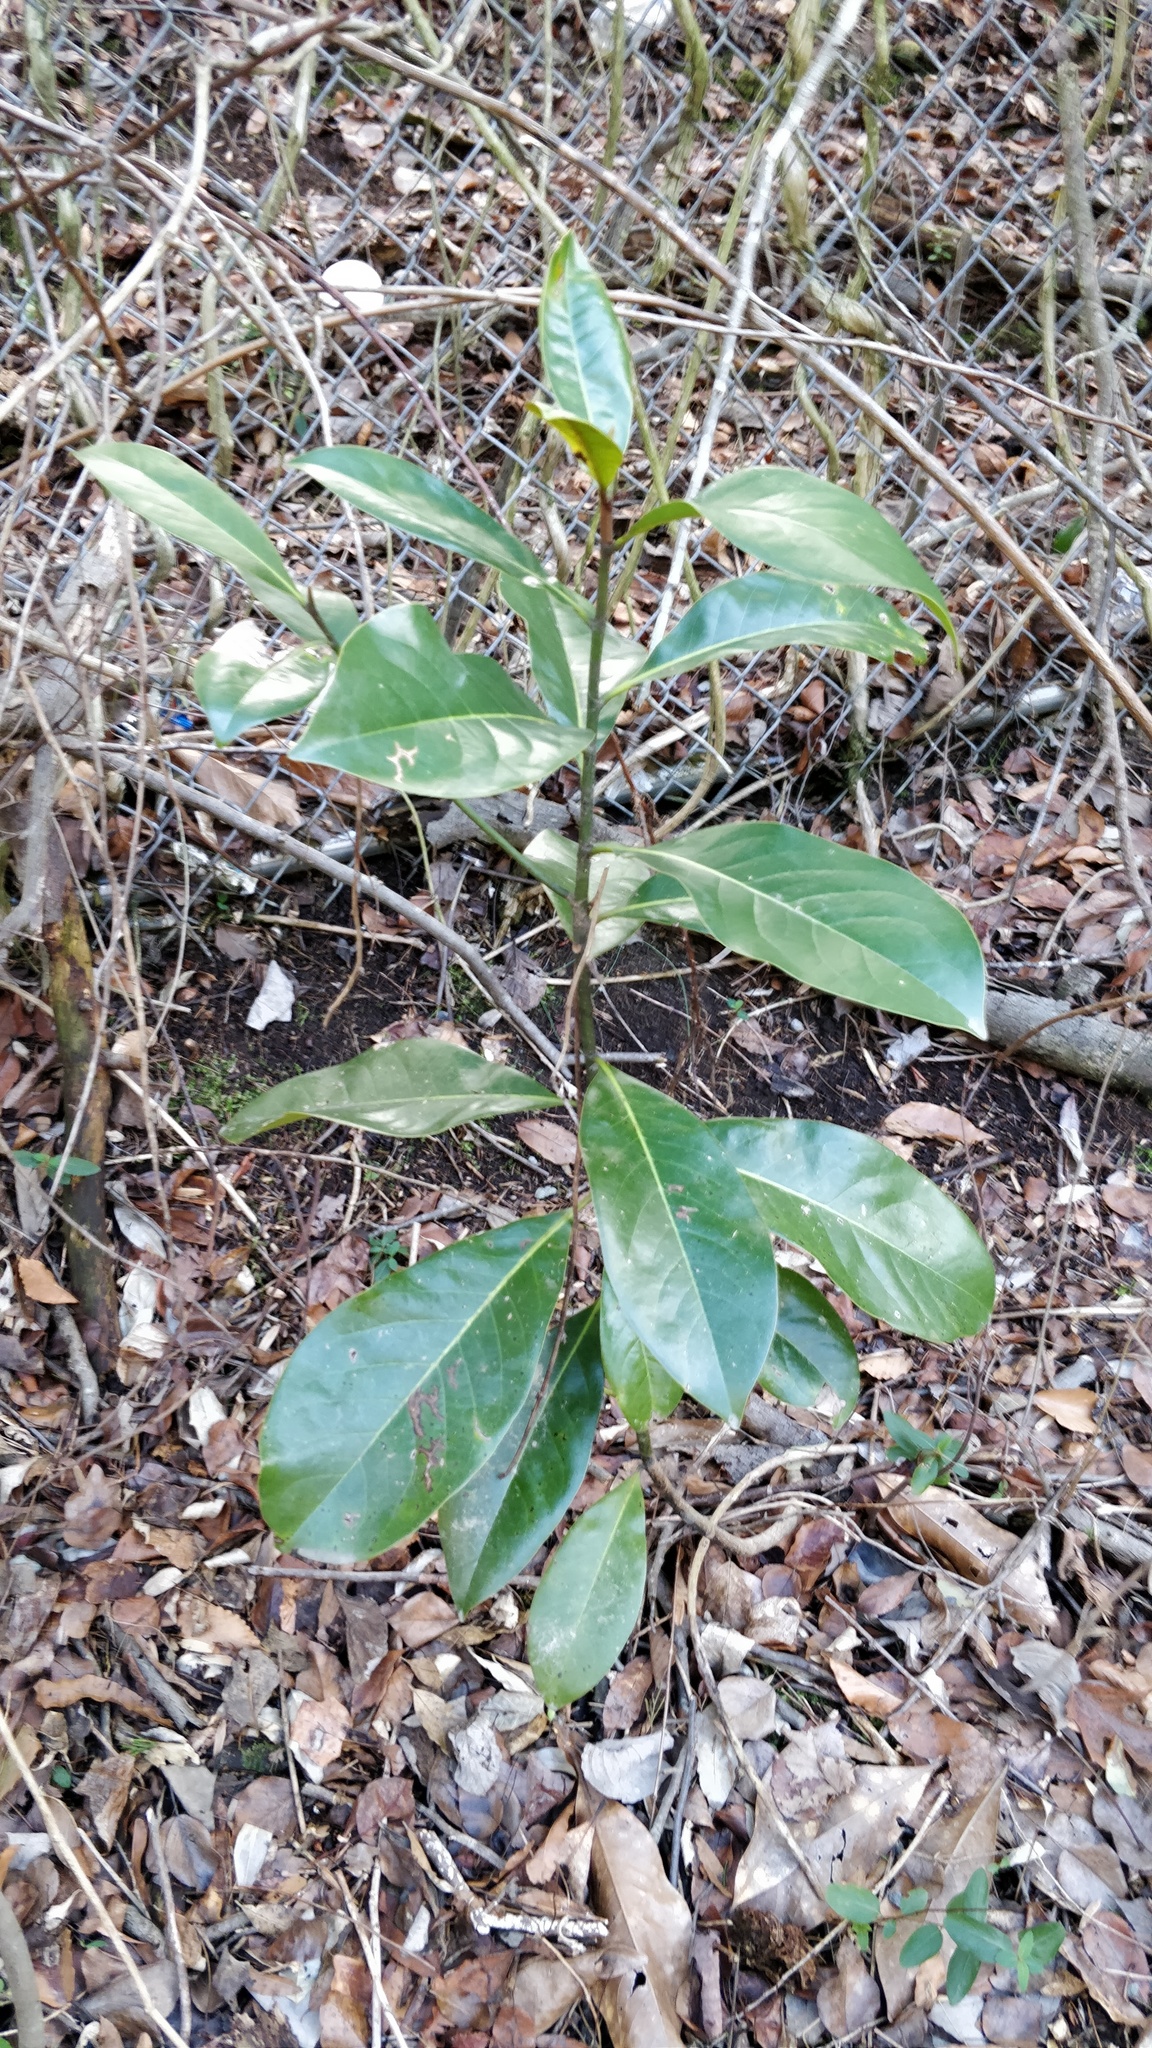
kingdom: Plantae
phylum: Tracheophyta
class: Magnoliopsida
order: Magnoliales
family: Magnoliaceae
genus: Magnolia
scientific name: Magnolia grandiflora
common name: Southern magnolia
